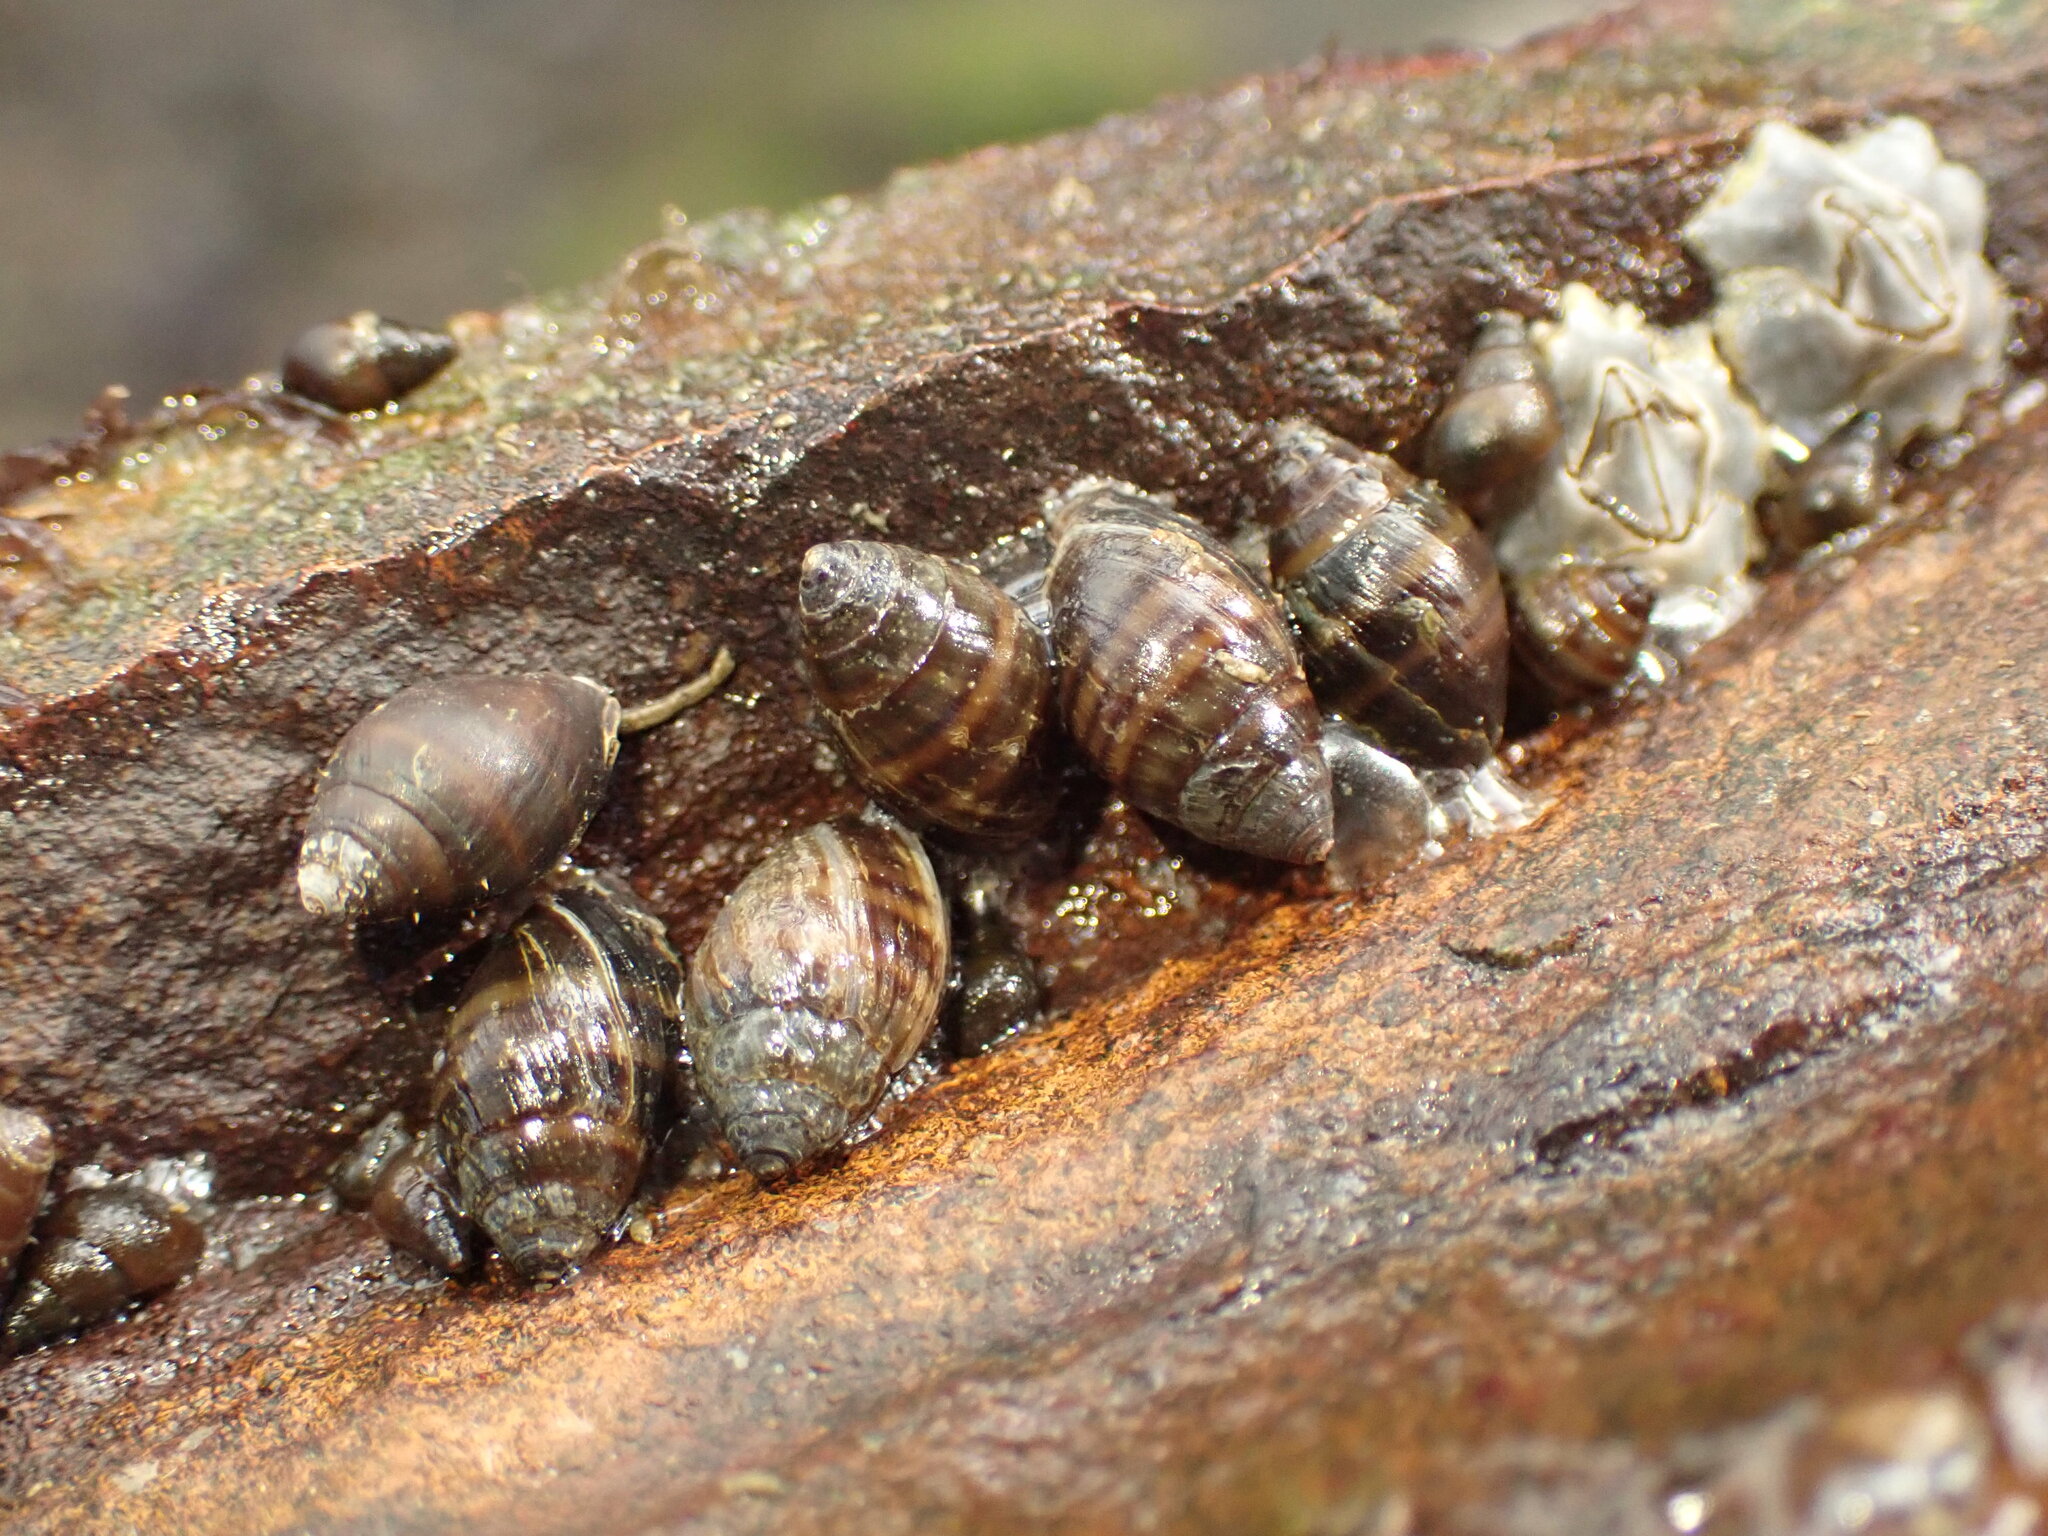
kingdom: Animalia
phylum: Mollusca
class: Gastropoda
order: Ellobiida
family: Ellobiidae
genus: Pleuroloba
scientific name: Pleuroloba costellaris
